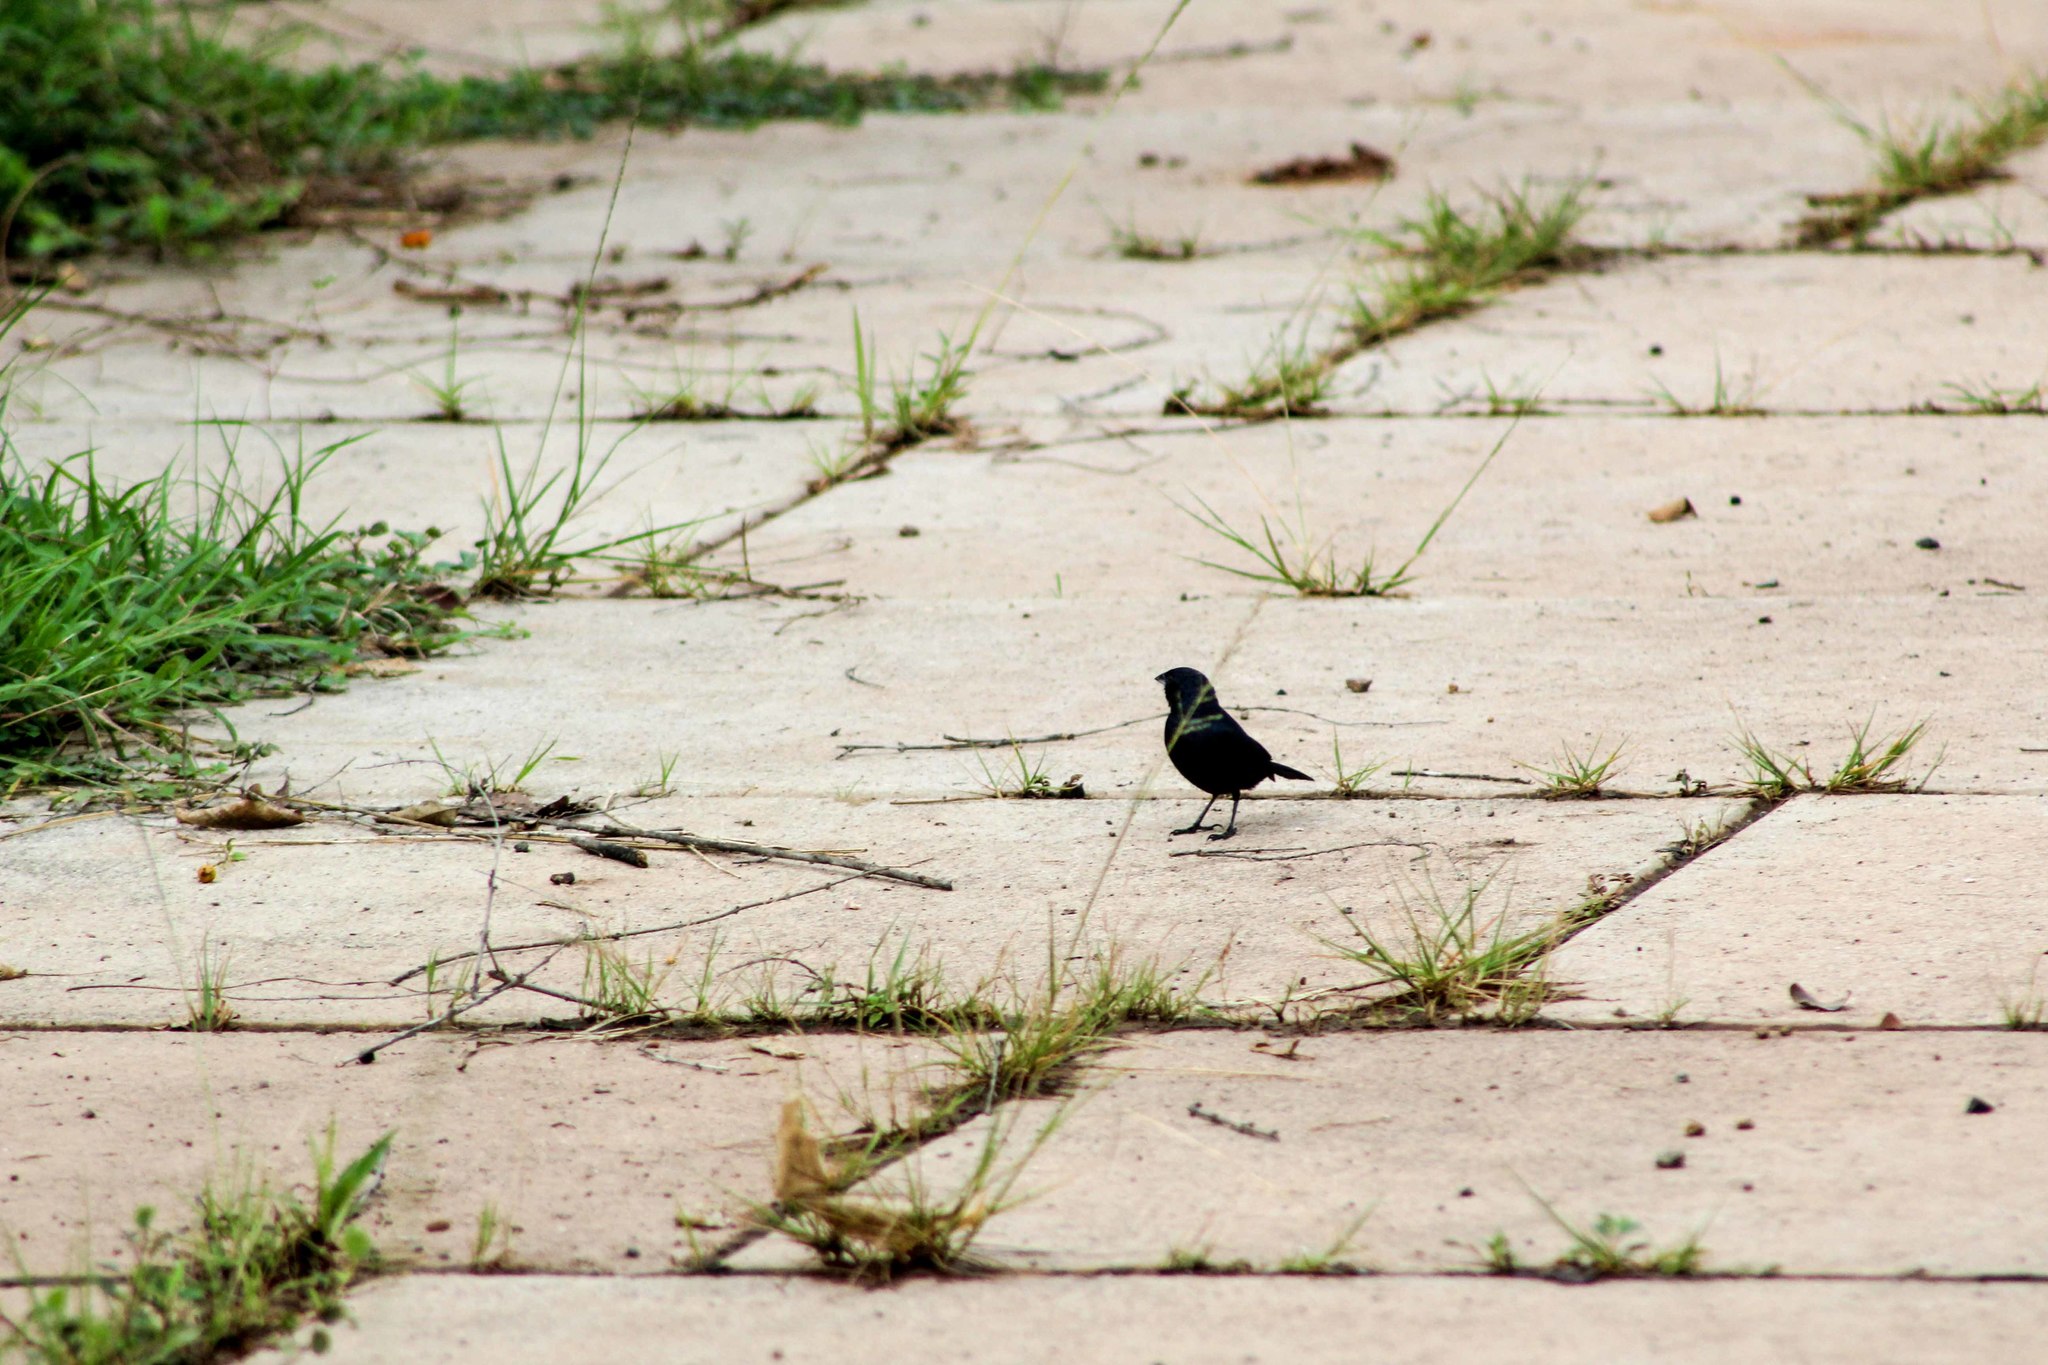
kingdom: Animalia
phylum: Chordata
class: Aves
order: Passeriformes
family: Thraupidae
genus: Volatinia
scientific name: Volatinia jacarina
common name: Blue-black grassquit
